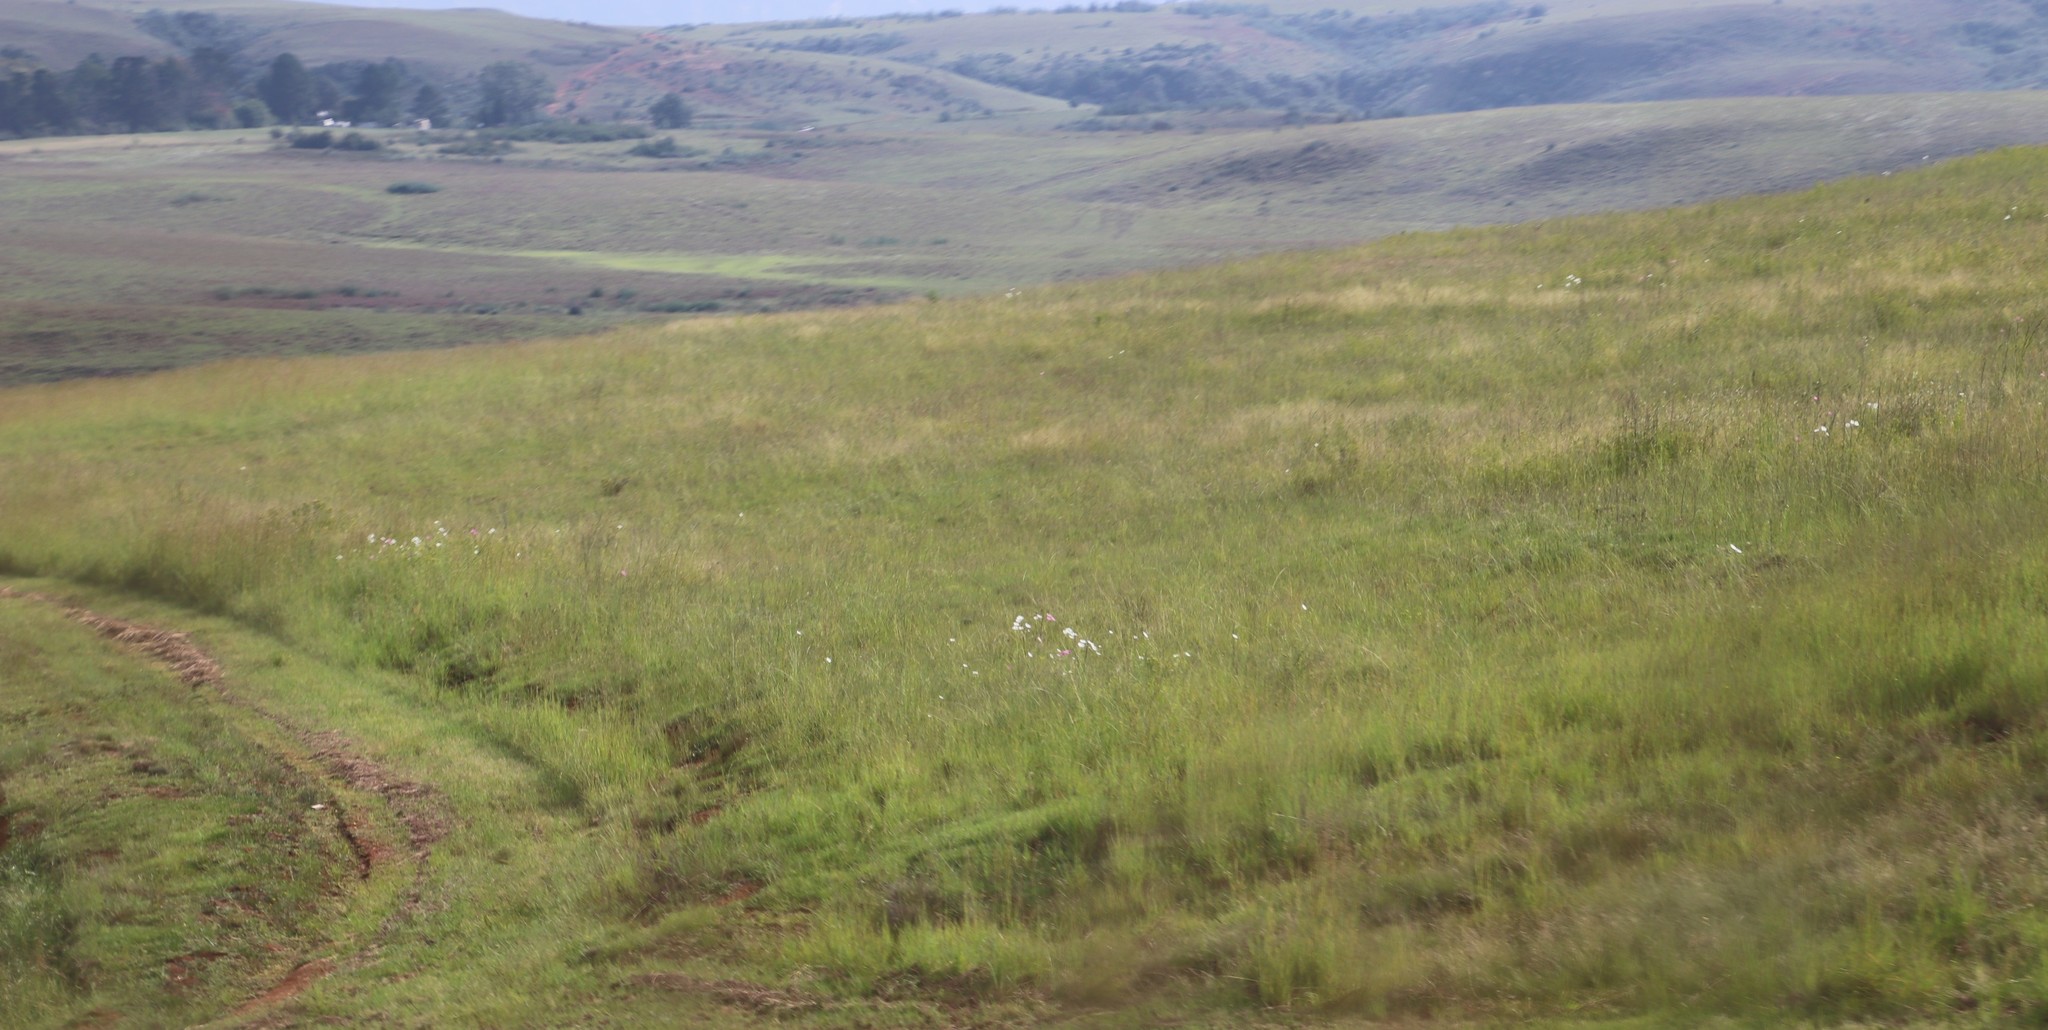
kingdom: Plantae
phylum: Tracheophyta
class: Magnoliopsida
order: Asterales
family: Asteraceae
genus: Cosmos
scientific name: Cosmos bipinnatus
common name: Garden cosmos
